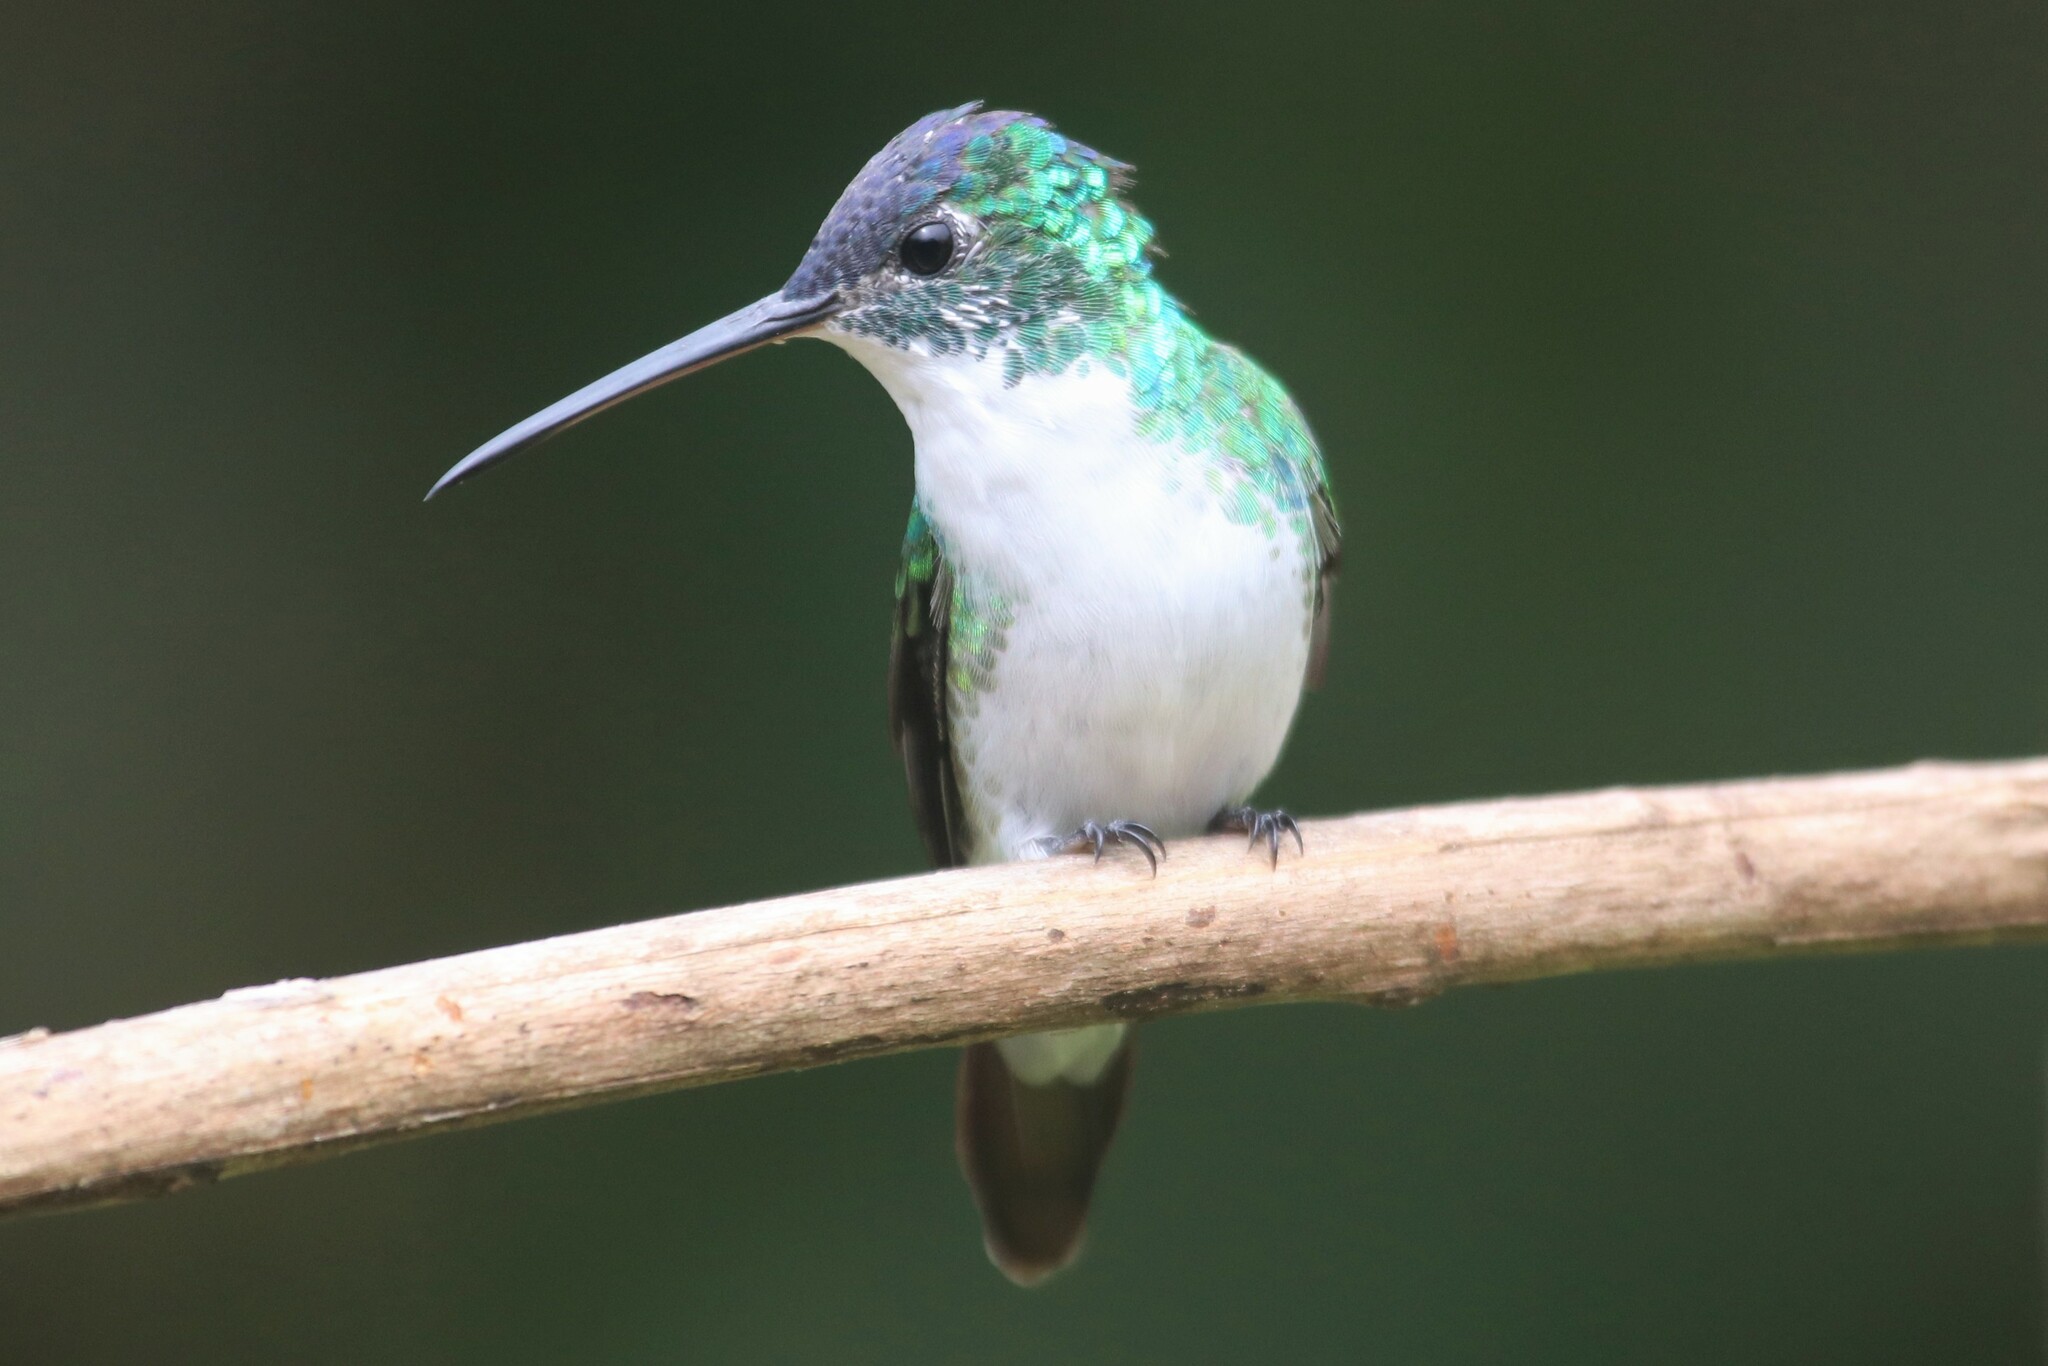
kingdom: Animalia
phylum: Chordata
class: Aves
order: Apodiformes
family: Trochilidae
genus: Uranomitra
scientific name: Uranomitra franciae
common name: Andean emerald
